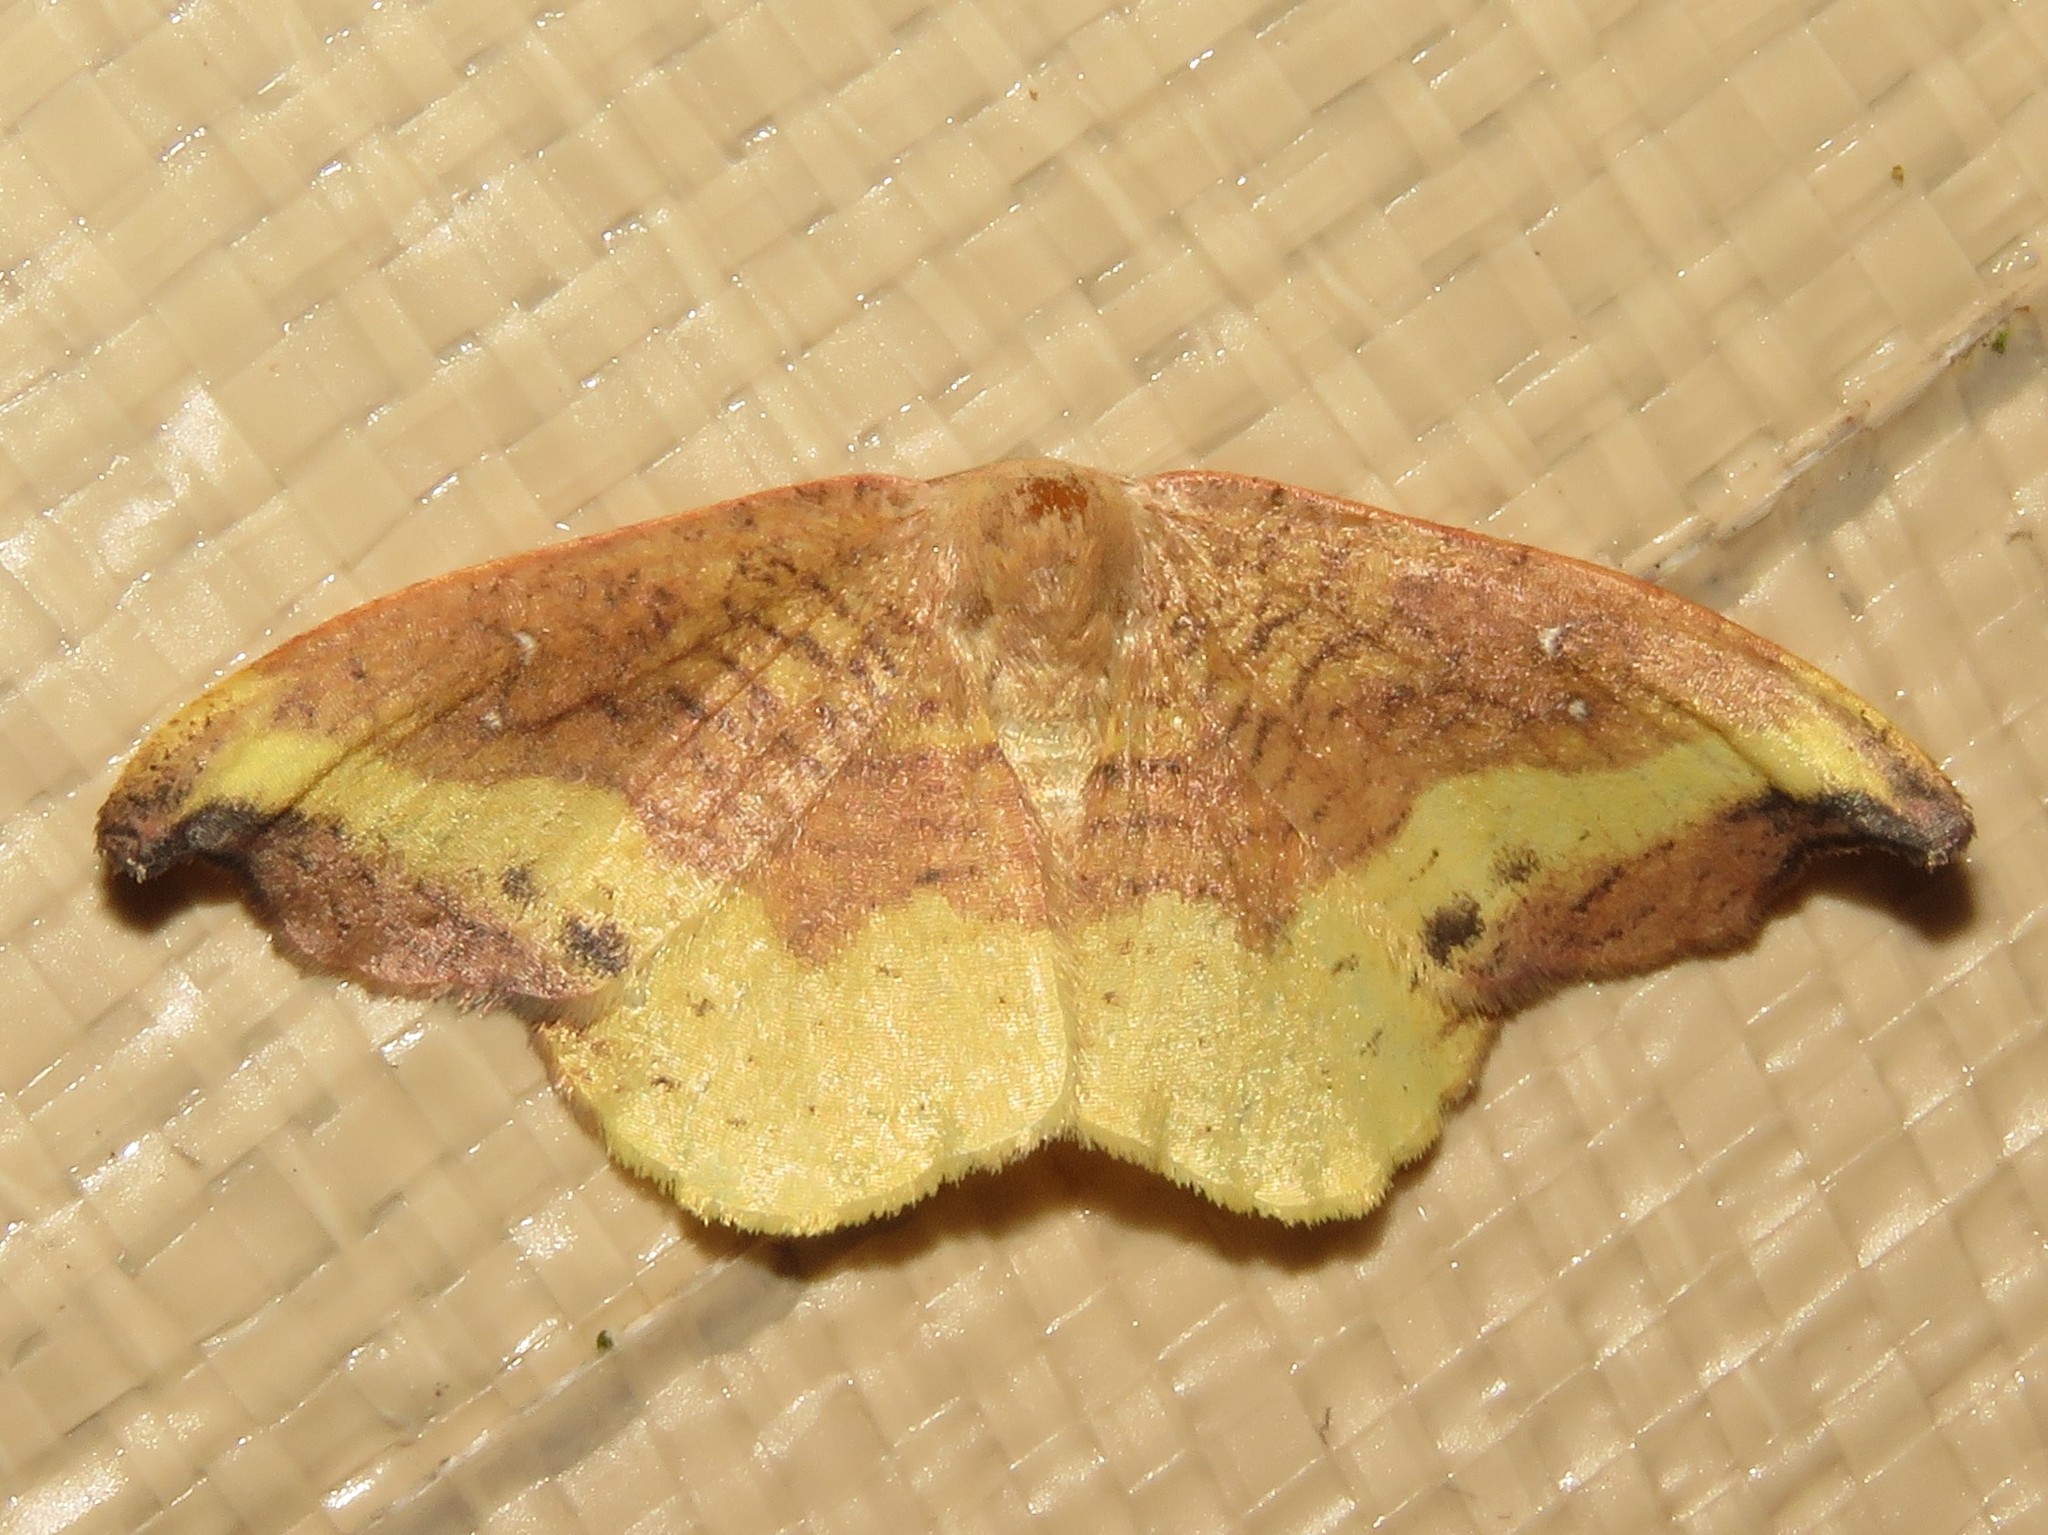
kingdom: Animalia
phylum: Arthropoda
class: Insecta
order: Lepidoptera
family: Drepanidae
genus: Oreta
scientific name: Oreta rosea
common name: Rose hooktip
